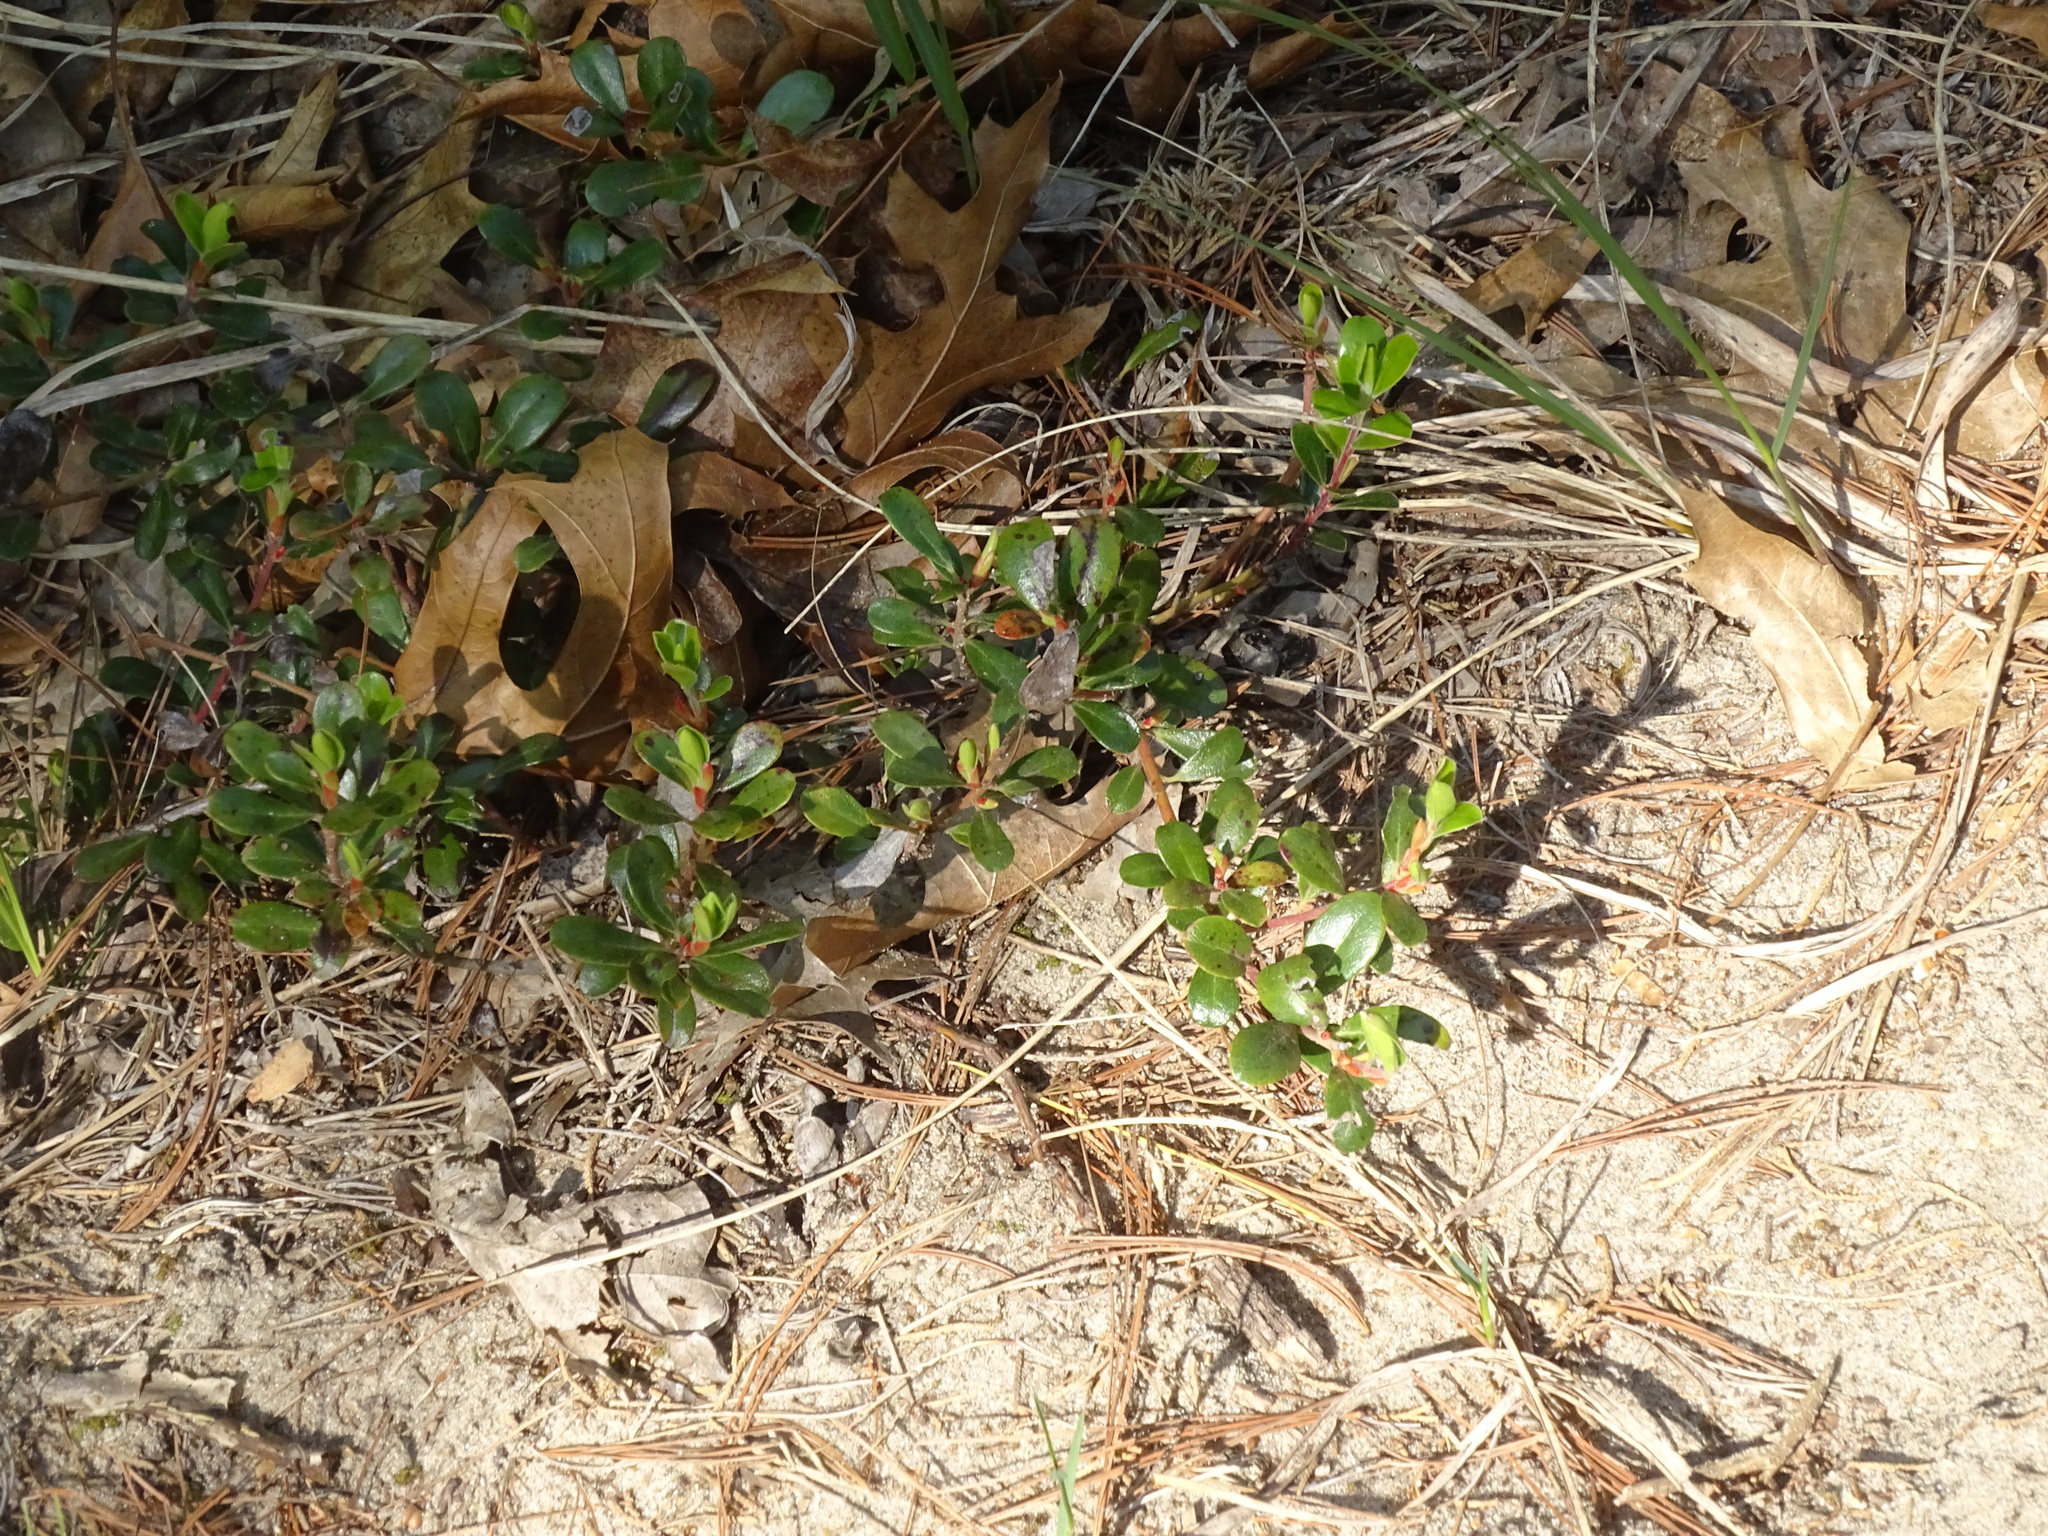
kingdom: Plantae
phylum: Tracheophyta
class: Magnoliopsida
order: Ericales
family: Ericaceae
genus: Arctostaphylos
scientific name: Arctostaphylos uva-ursi
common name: Bearberry
